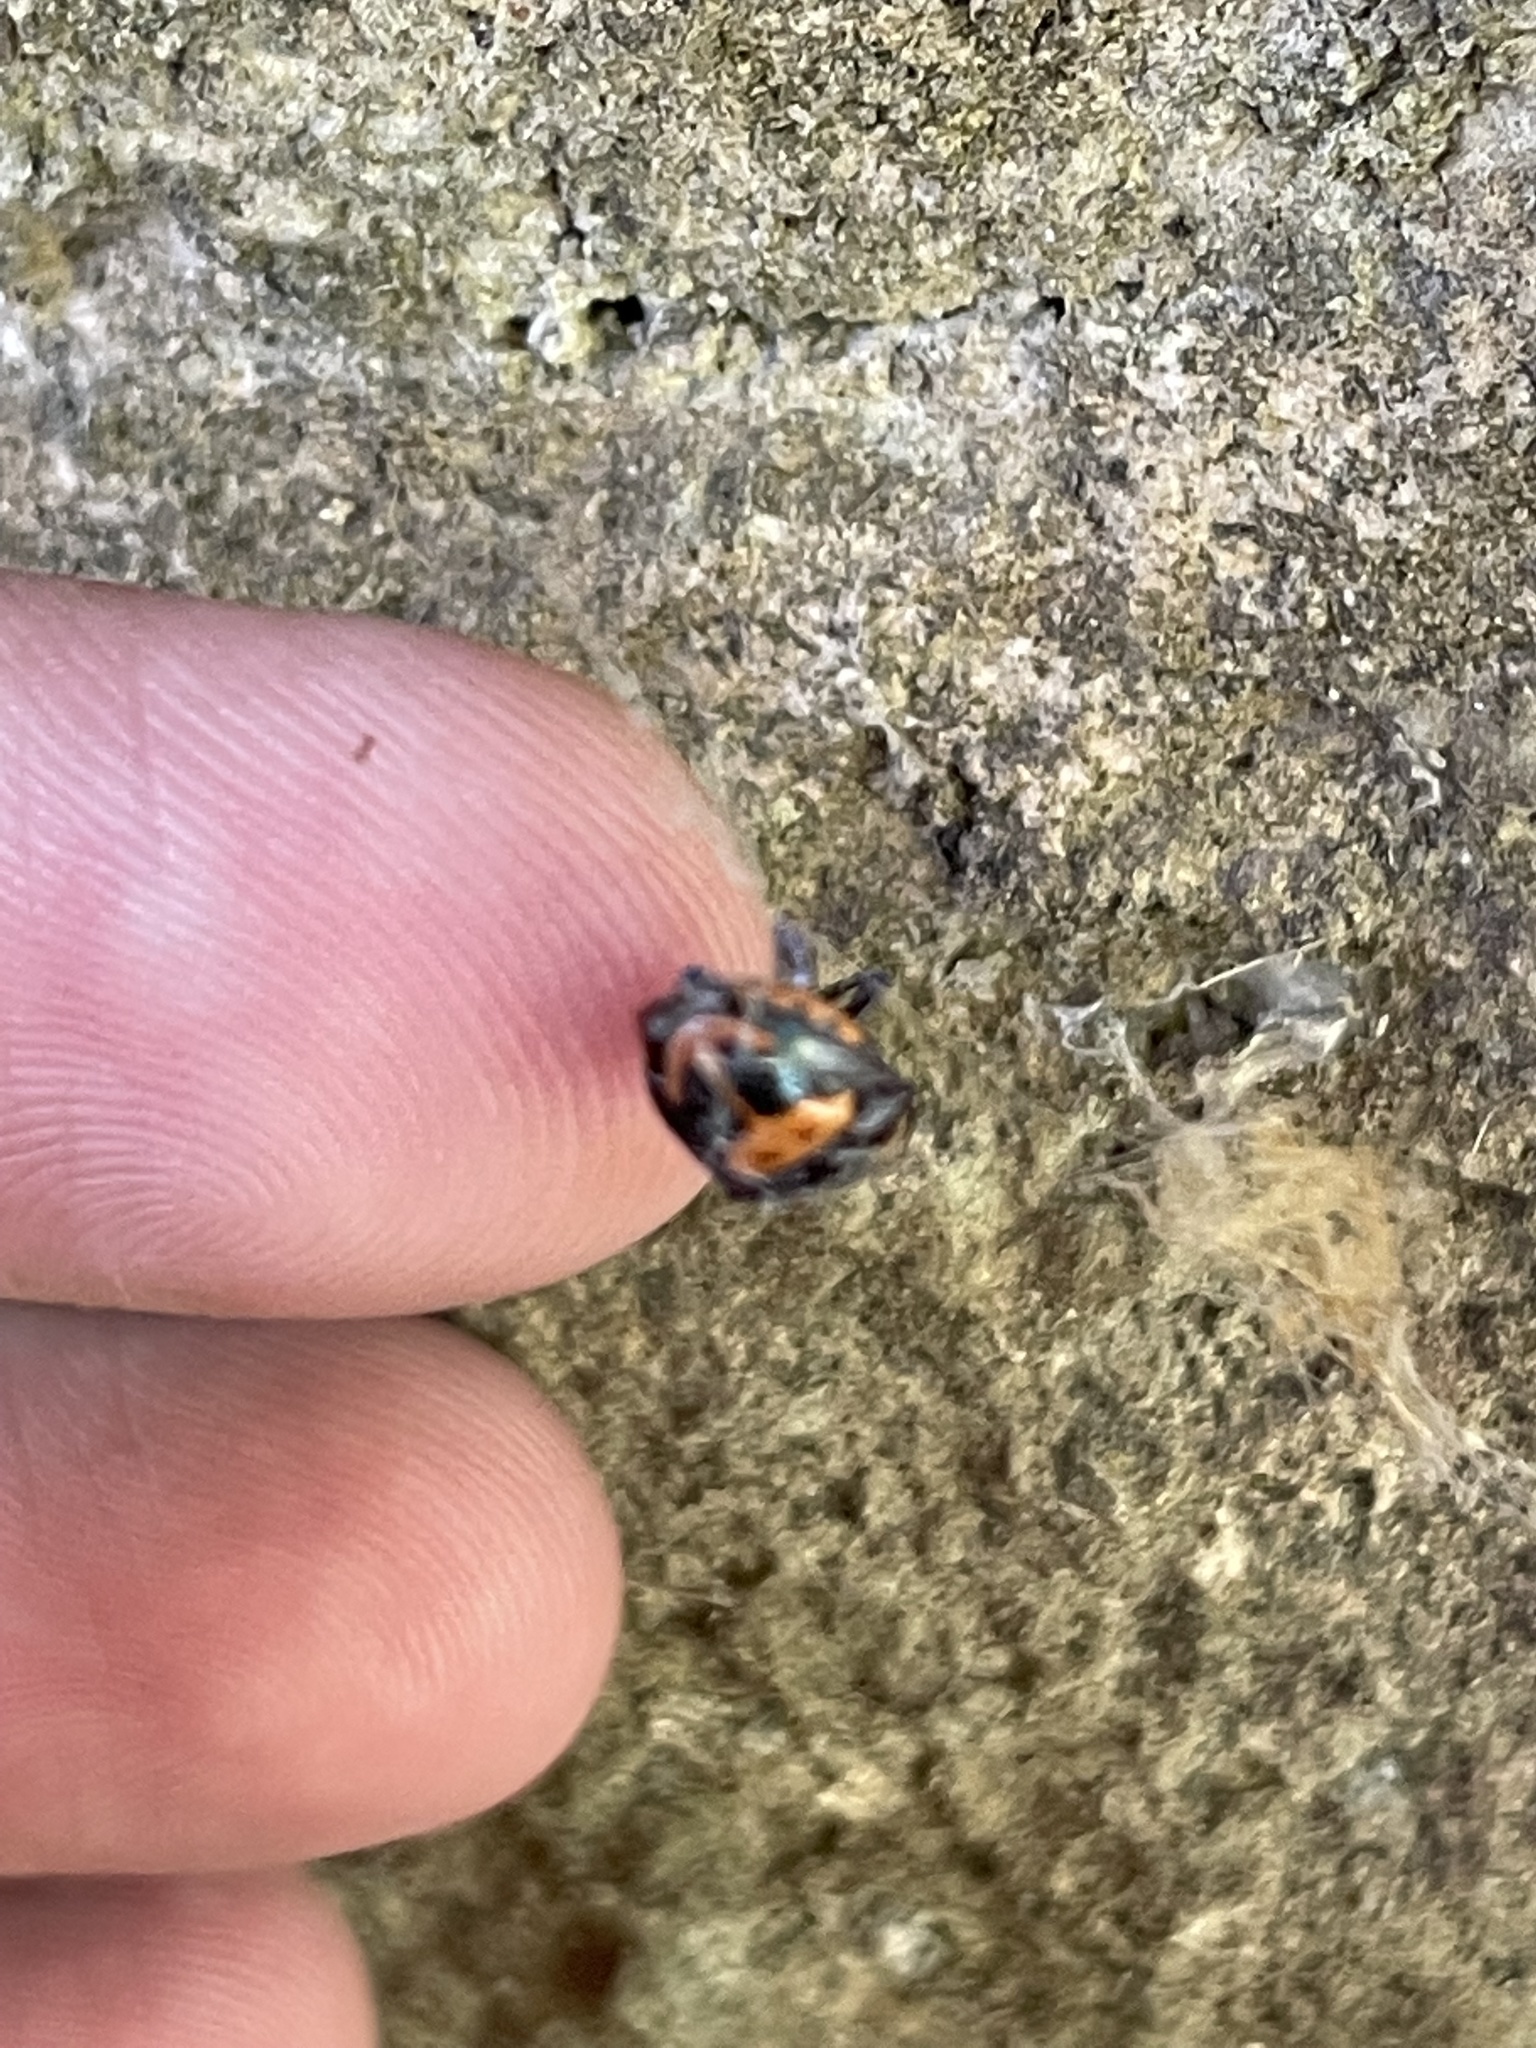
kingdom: Animalia
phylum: Arthropoda
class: Insecta
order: Hemiptera
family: Pentatomidae
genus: Stiretrus
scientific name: Stiretrus anchorago
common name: Anchor stink bug
